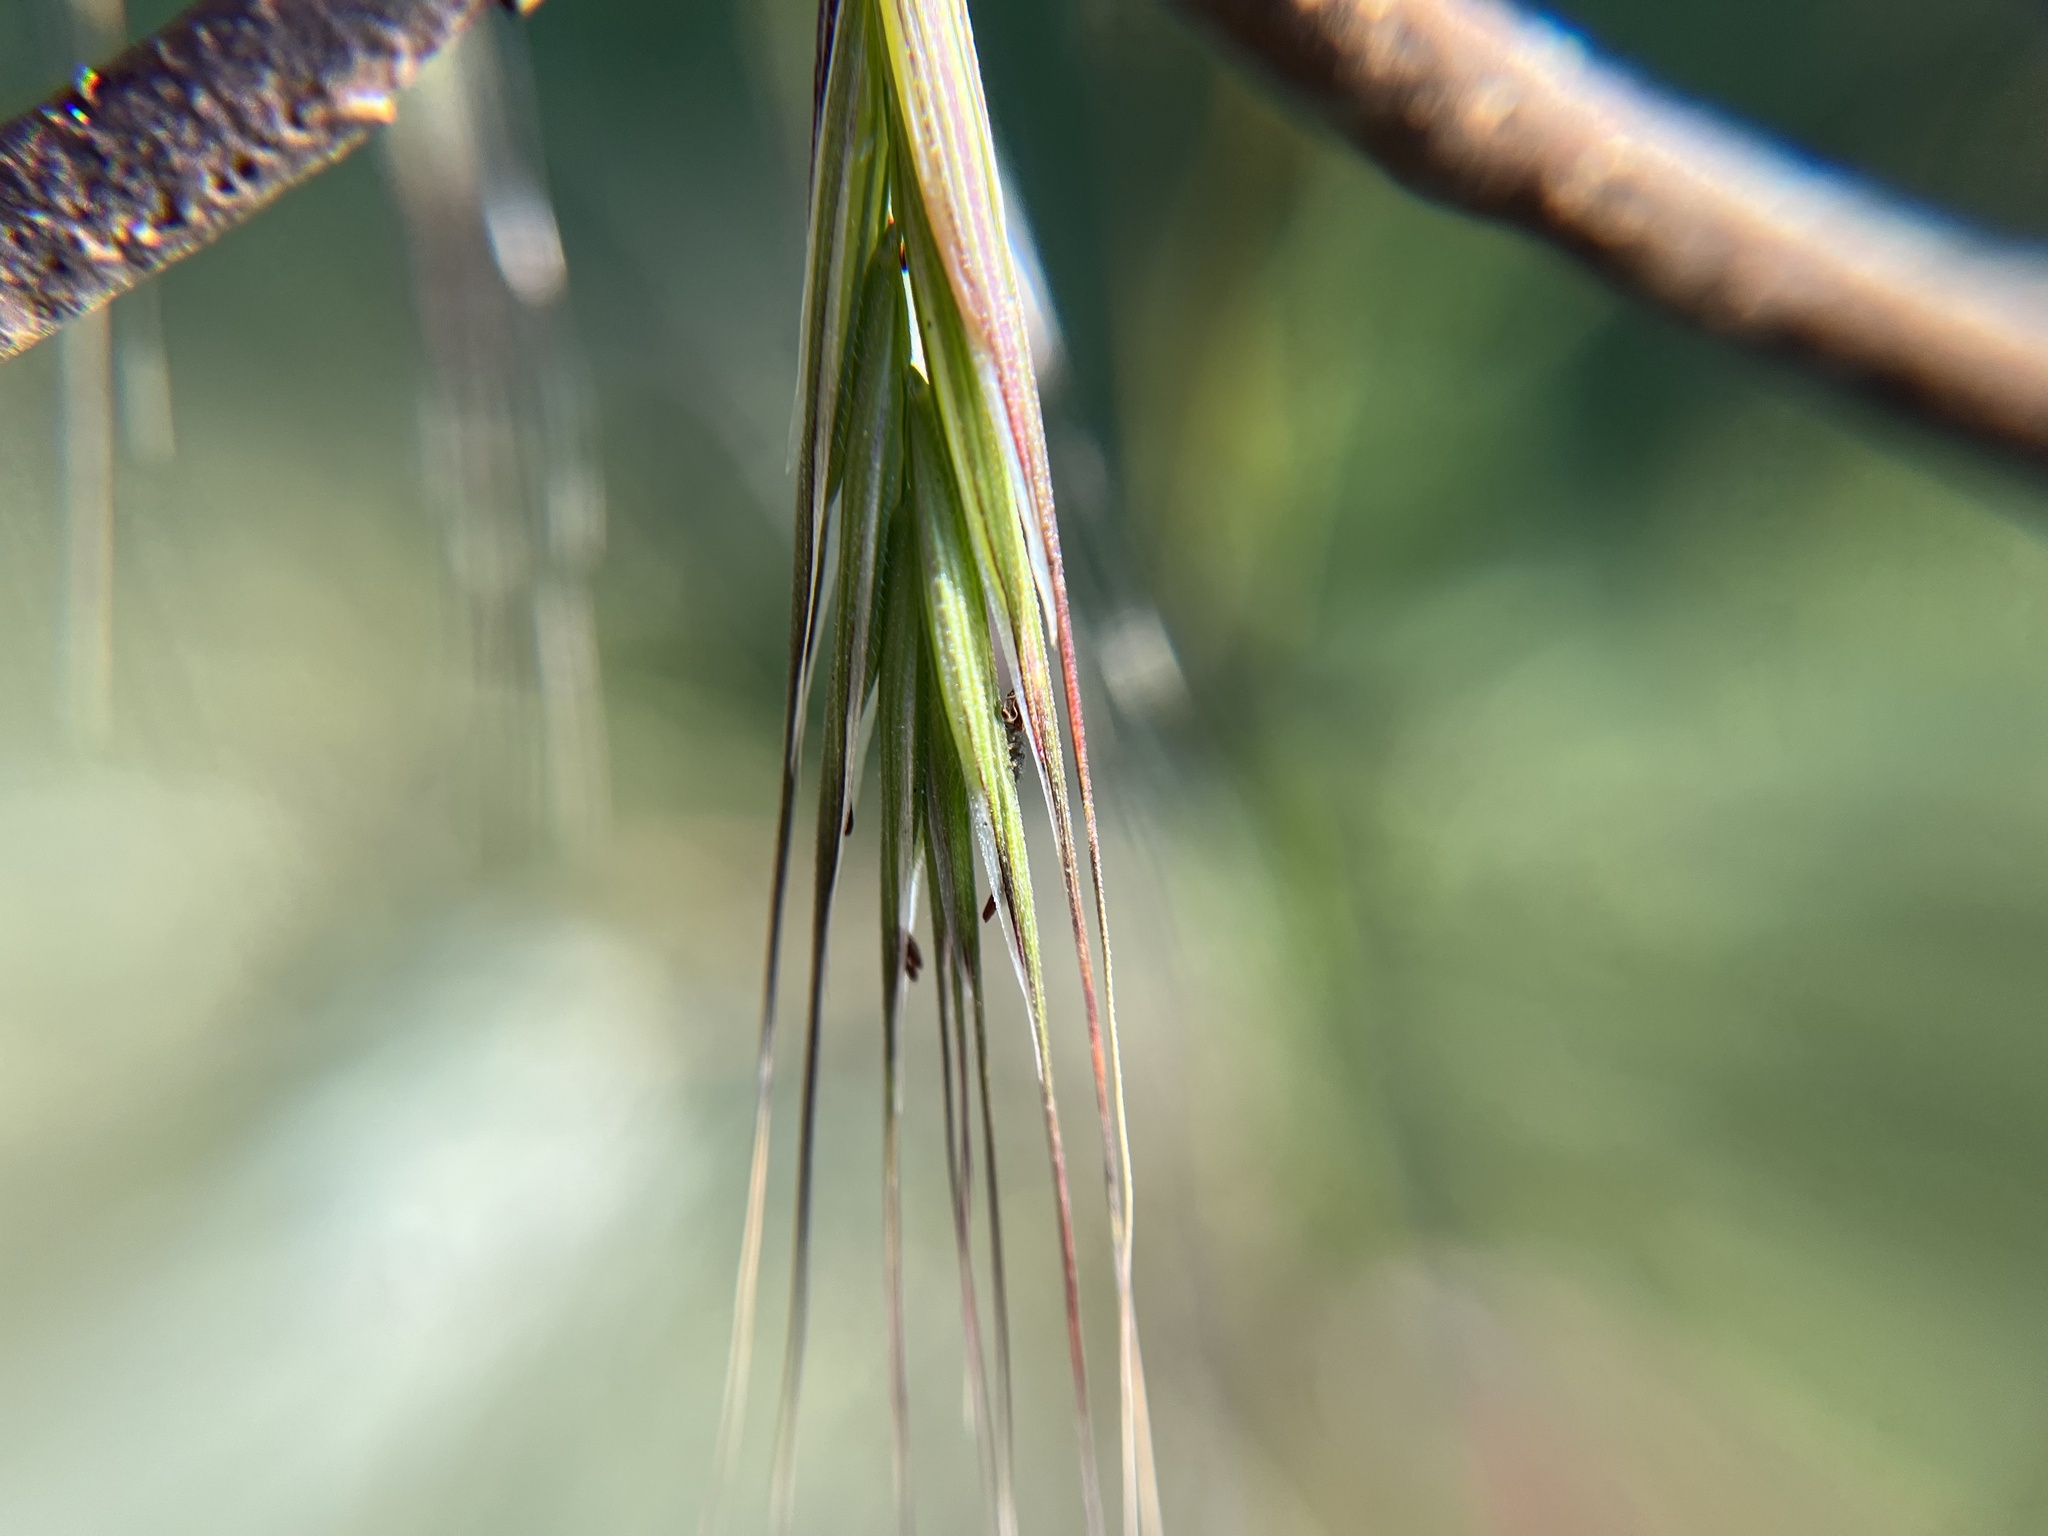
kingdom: Plantae
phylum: Tracheophyta
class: Liliopsida
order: Poales
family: Poaceae
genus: Bromus
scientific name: Bromus sterilis
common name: Poverty brome
